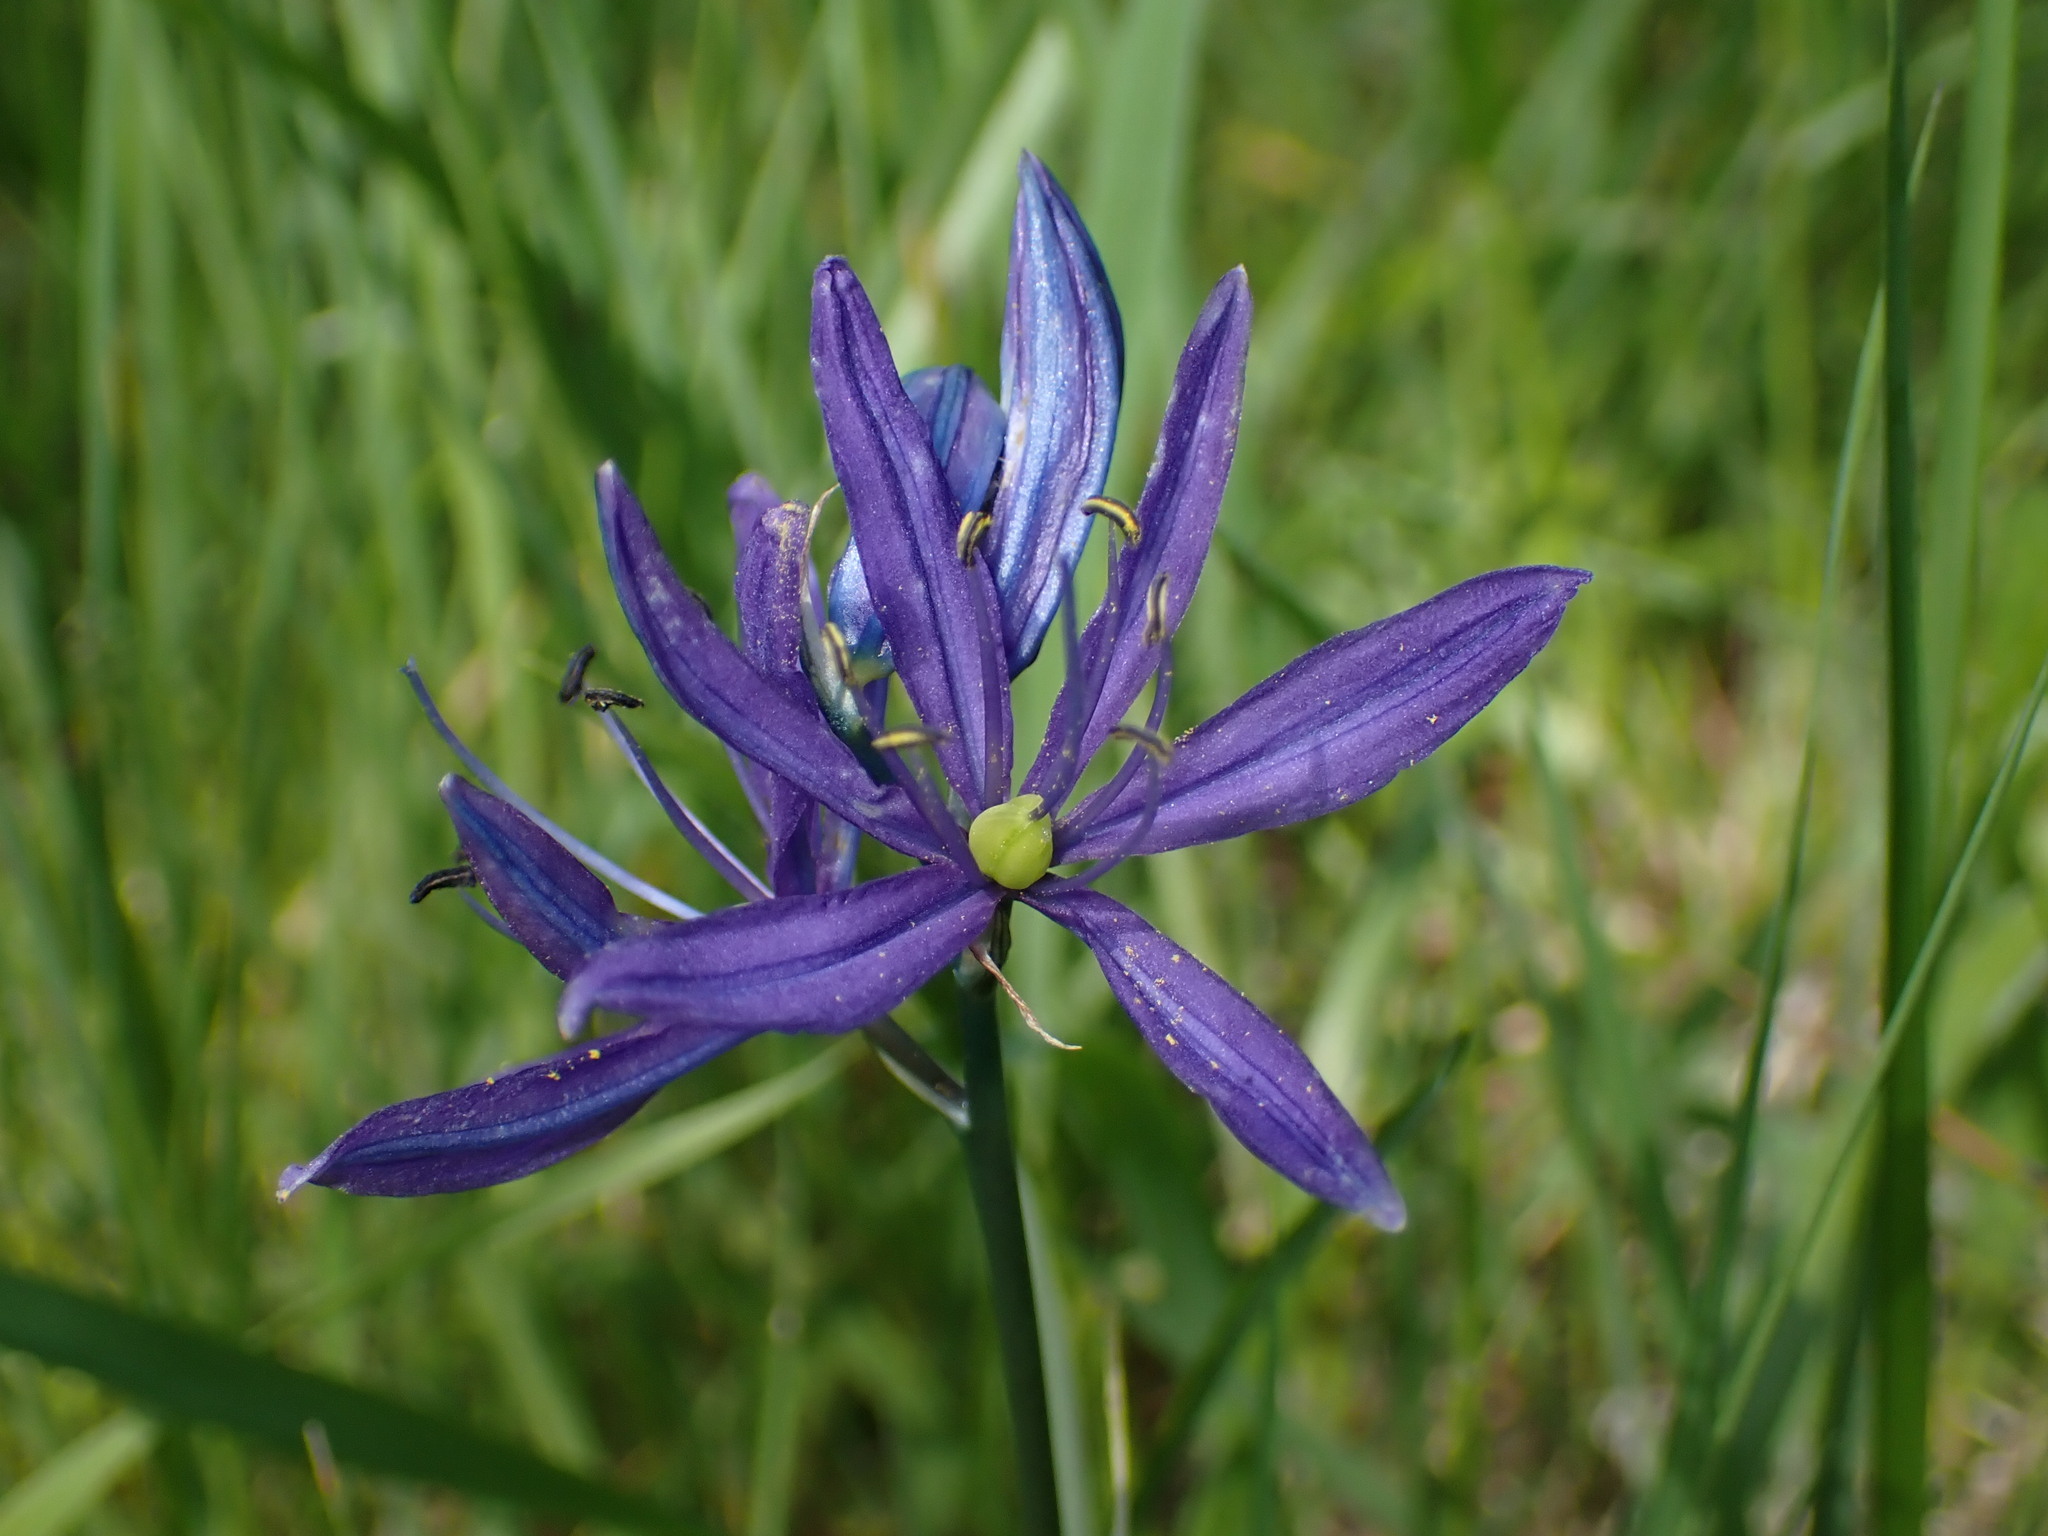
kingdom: Plantae
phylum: Tracheophyta
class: Liliopsida
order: Asparagales
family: Asparagaceae
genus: Camassia
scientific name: Camassia quamash
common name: Common camas
